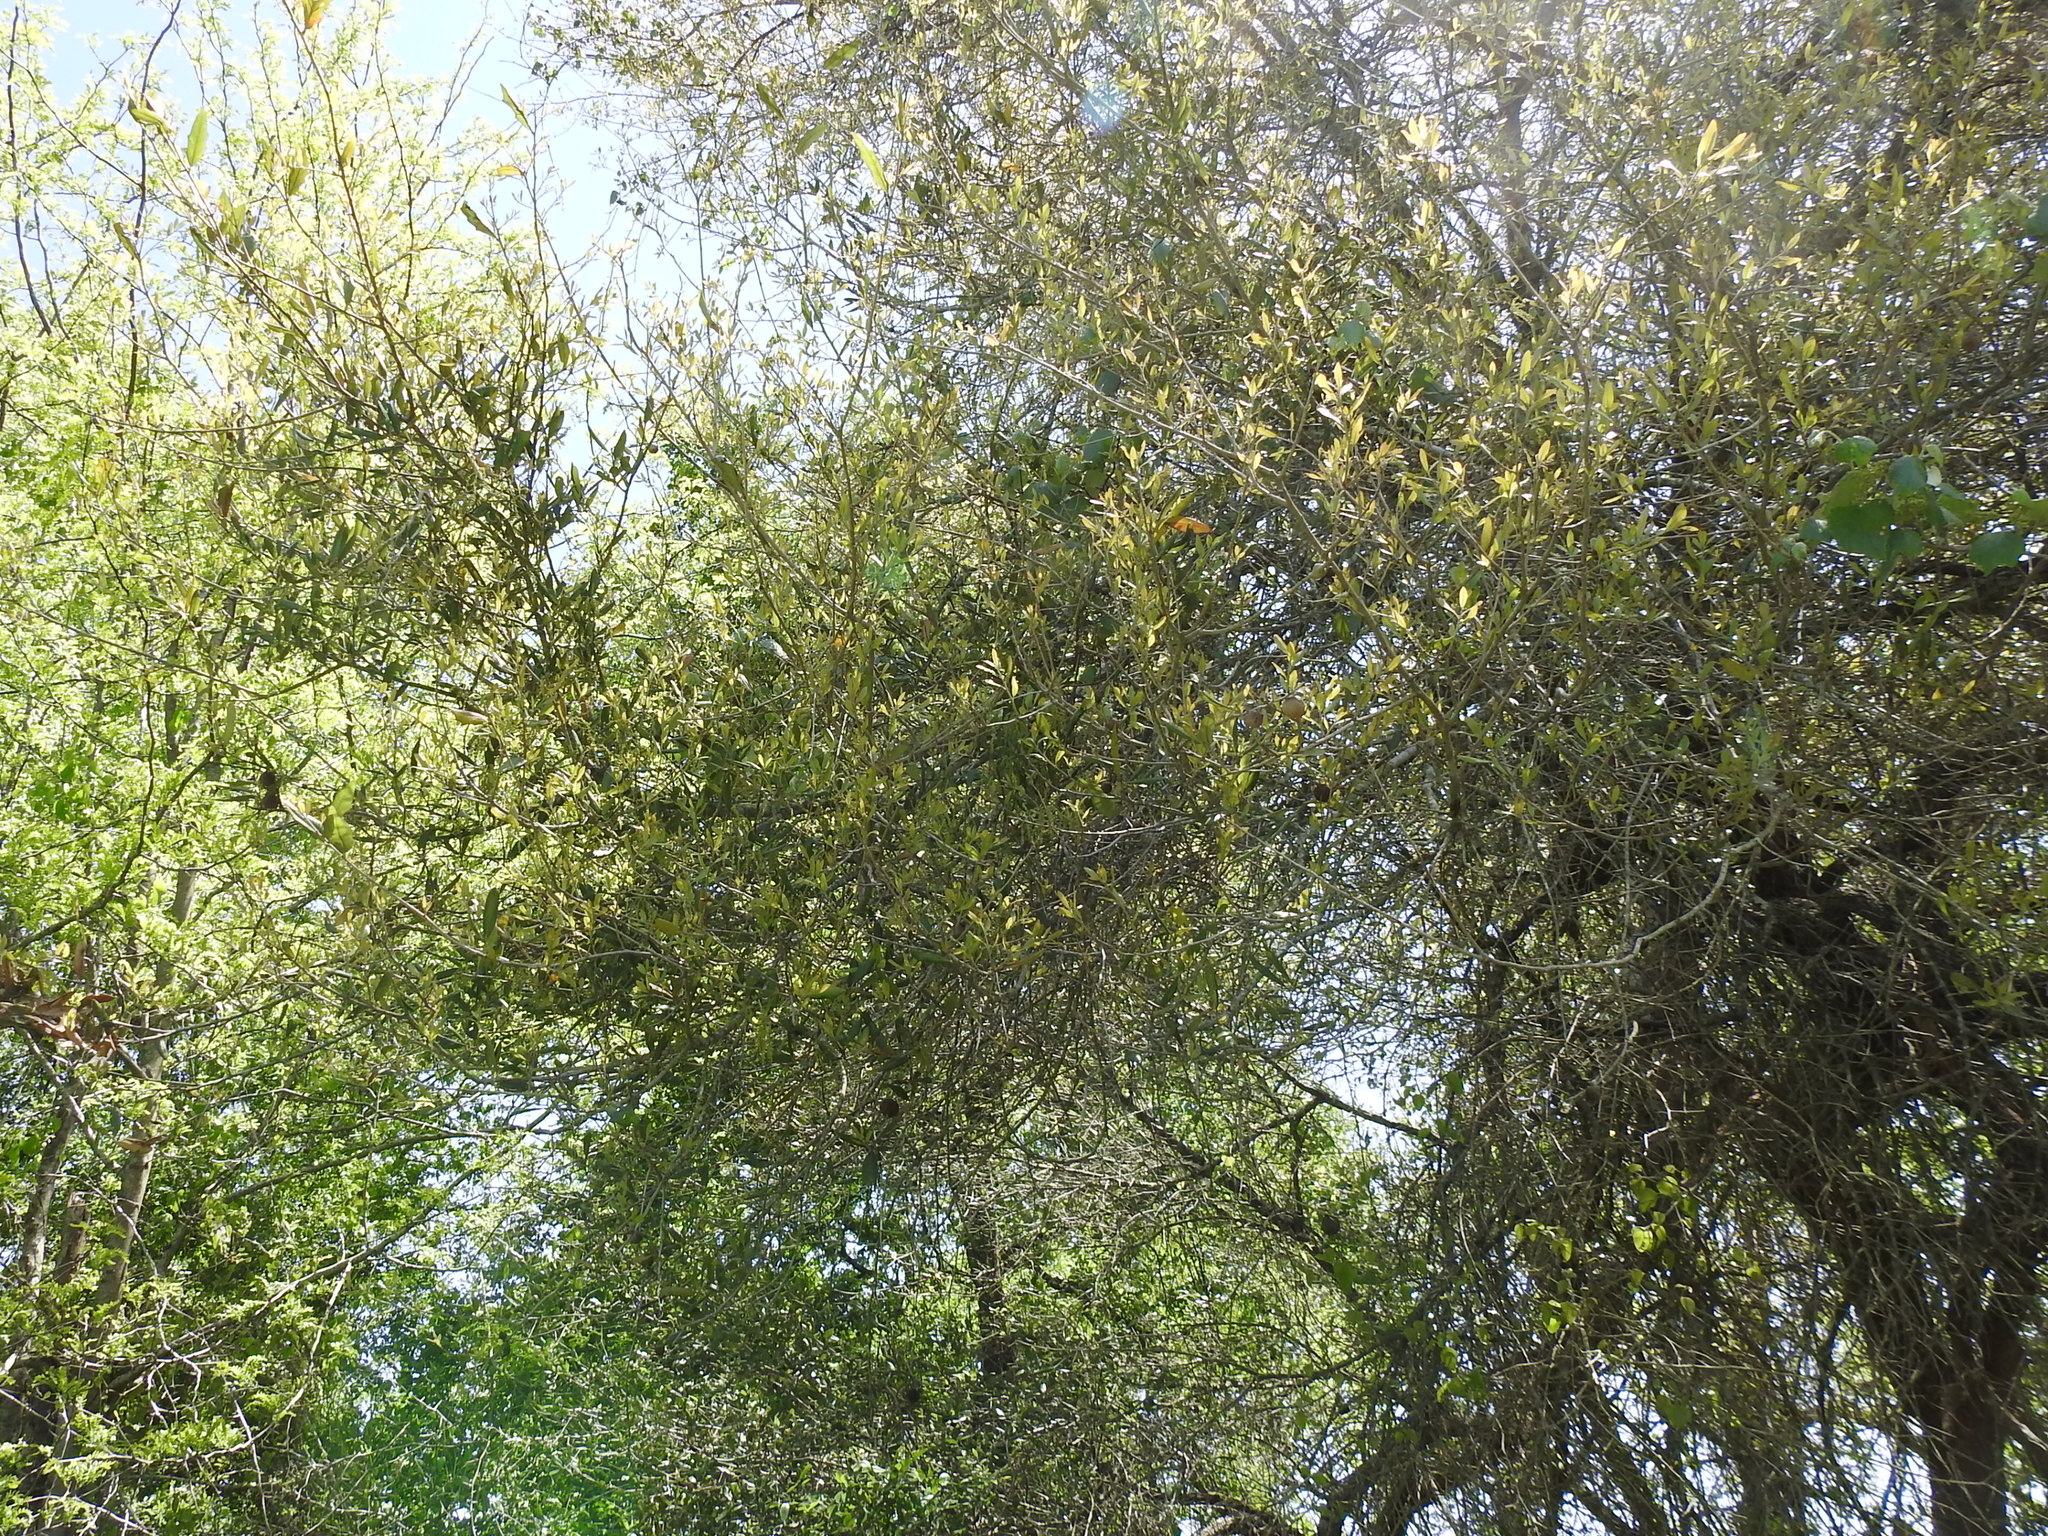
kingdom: Plantae
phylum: Tracheophyta
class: Magnoliopsida
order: Fagales
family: Fagaceae
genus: Quercus
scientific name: Quercus fusiformis
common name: Texas live oak
